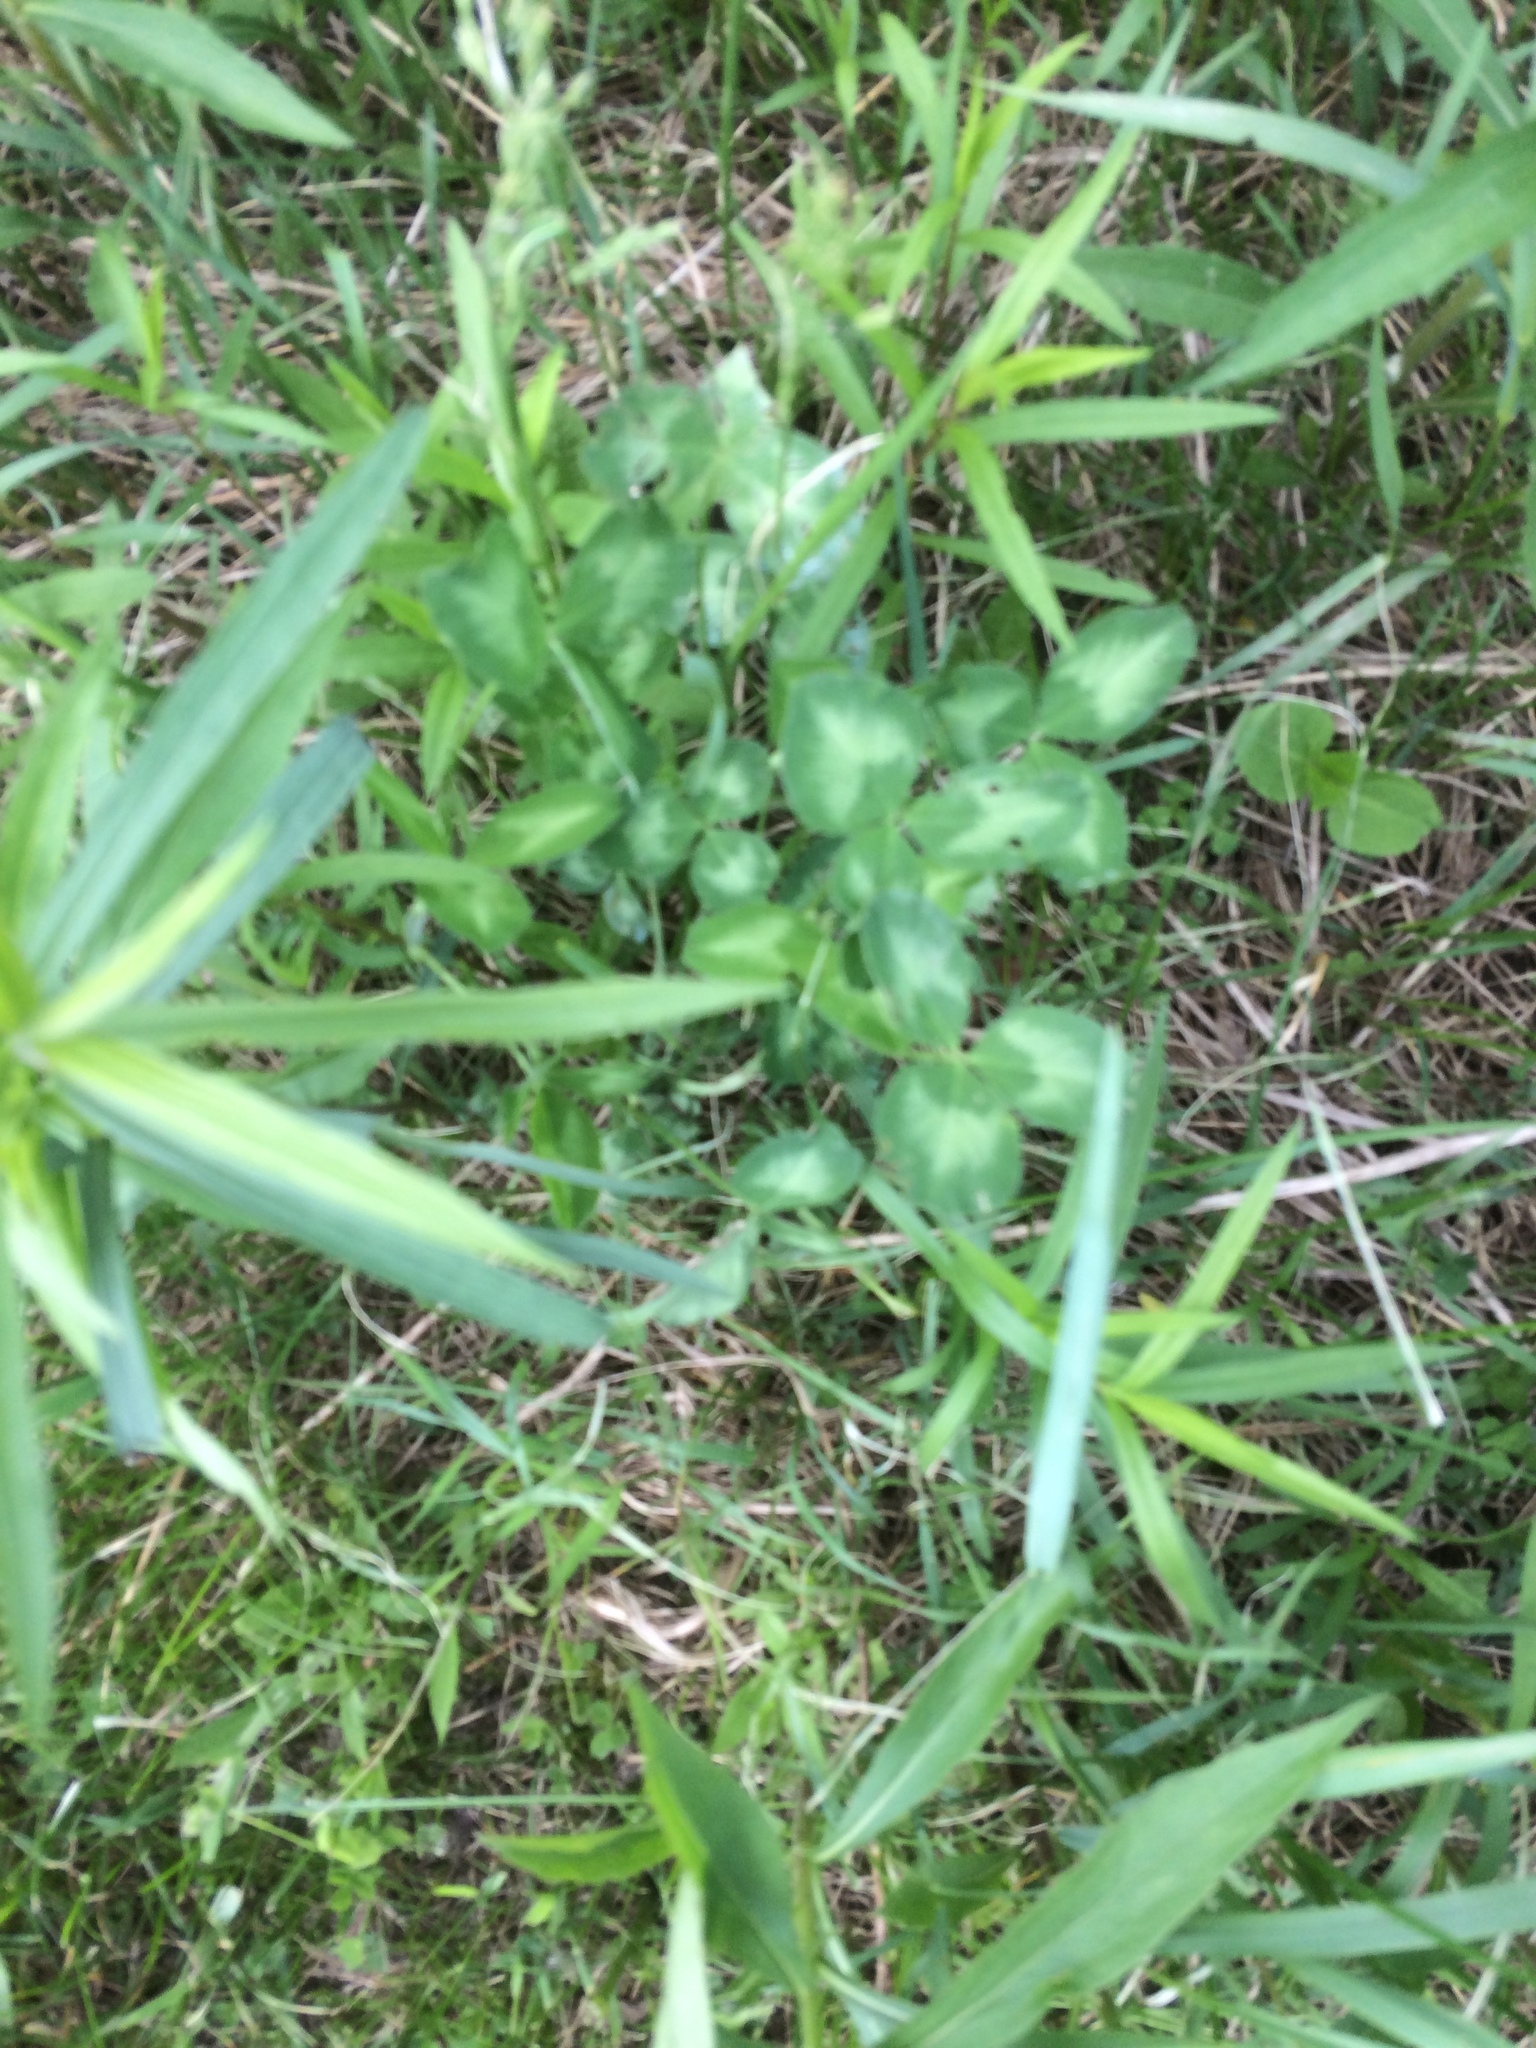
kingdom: Plantae
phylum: Tracheophyta
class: Magnoliopsida
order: Fabales
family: Fabaceae
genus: Trifolium
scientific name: Trifolium pratense
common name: Red clover
